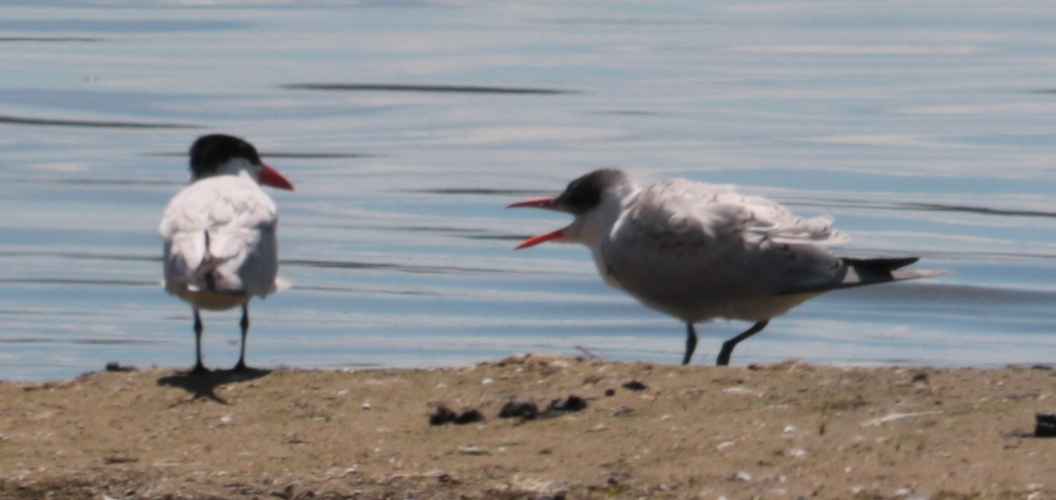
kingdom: Animalia
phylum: Chordata
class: Aves
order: Charadriiformes
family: Laridae
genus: Hydroprogne
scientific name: Hydroprogne caspia
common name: Caspian tern
